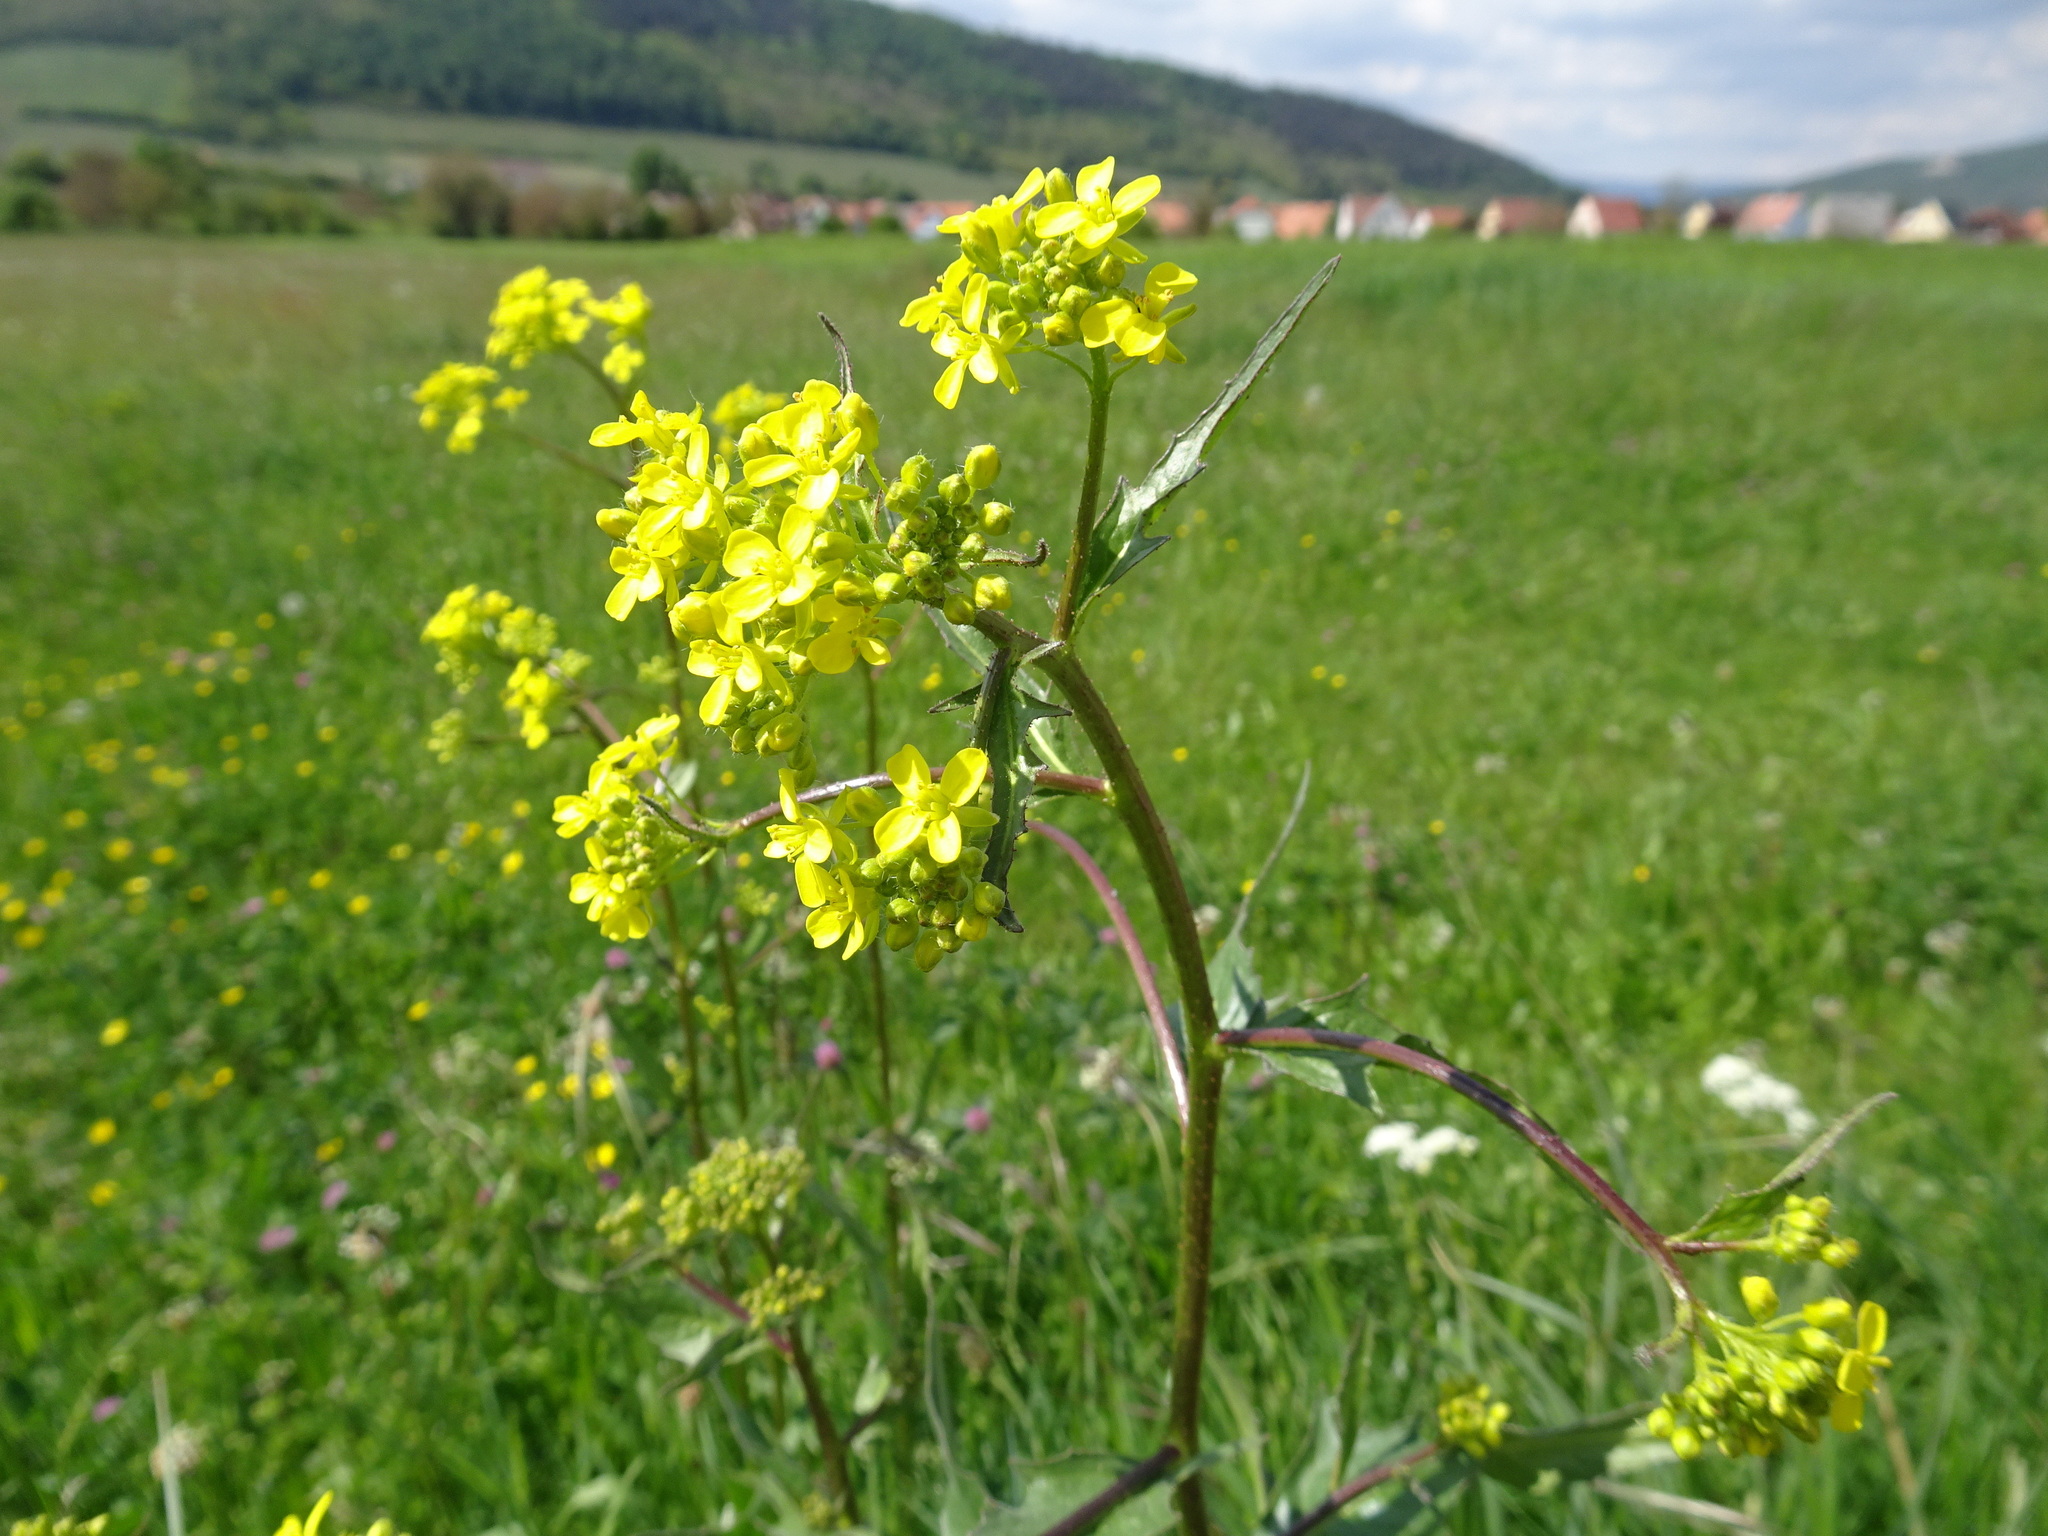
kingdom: Plantae
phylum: Tracheophyta
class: Magnoliopsida
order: Brassicales
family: Brassicaceae
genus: Bunias
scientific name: Bunias orientalis
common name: Warty-cabbage
